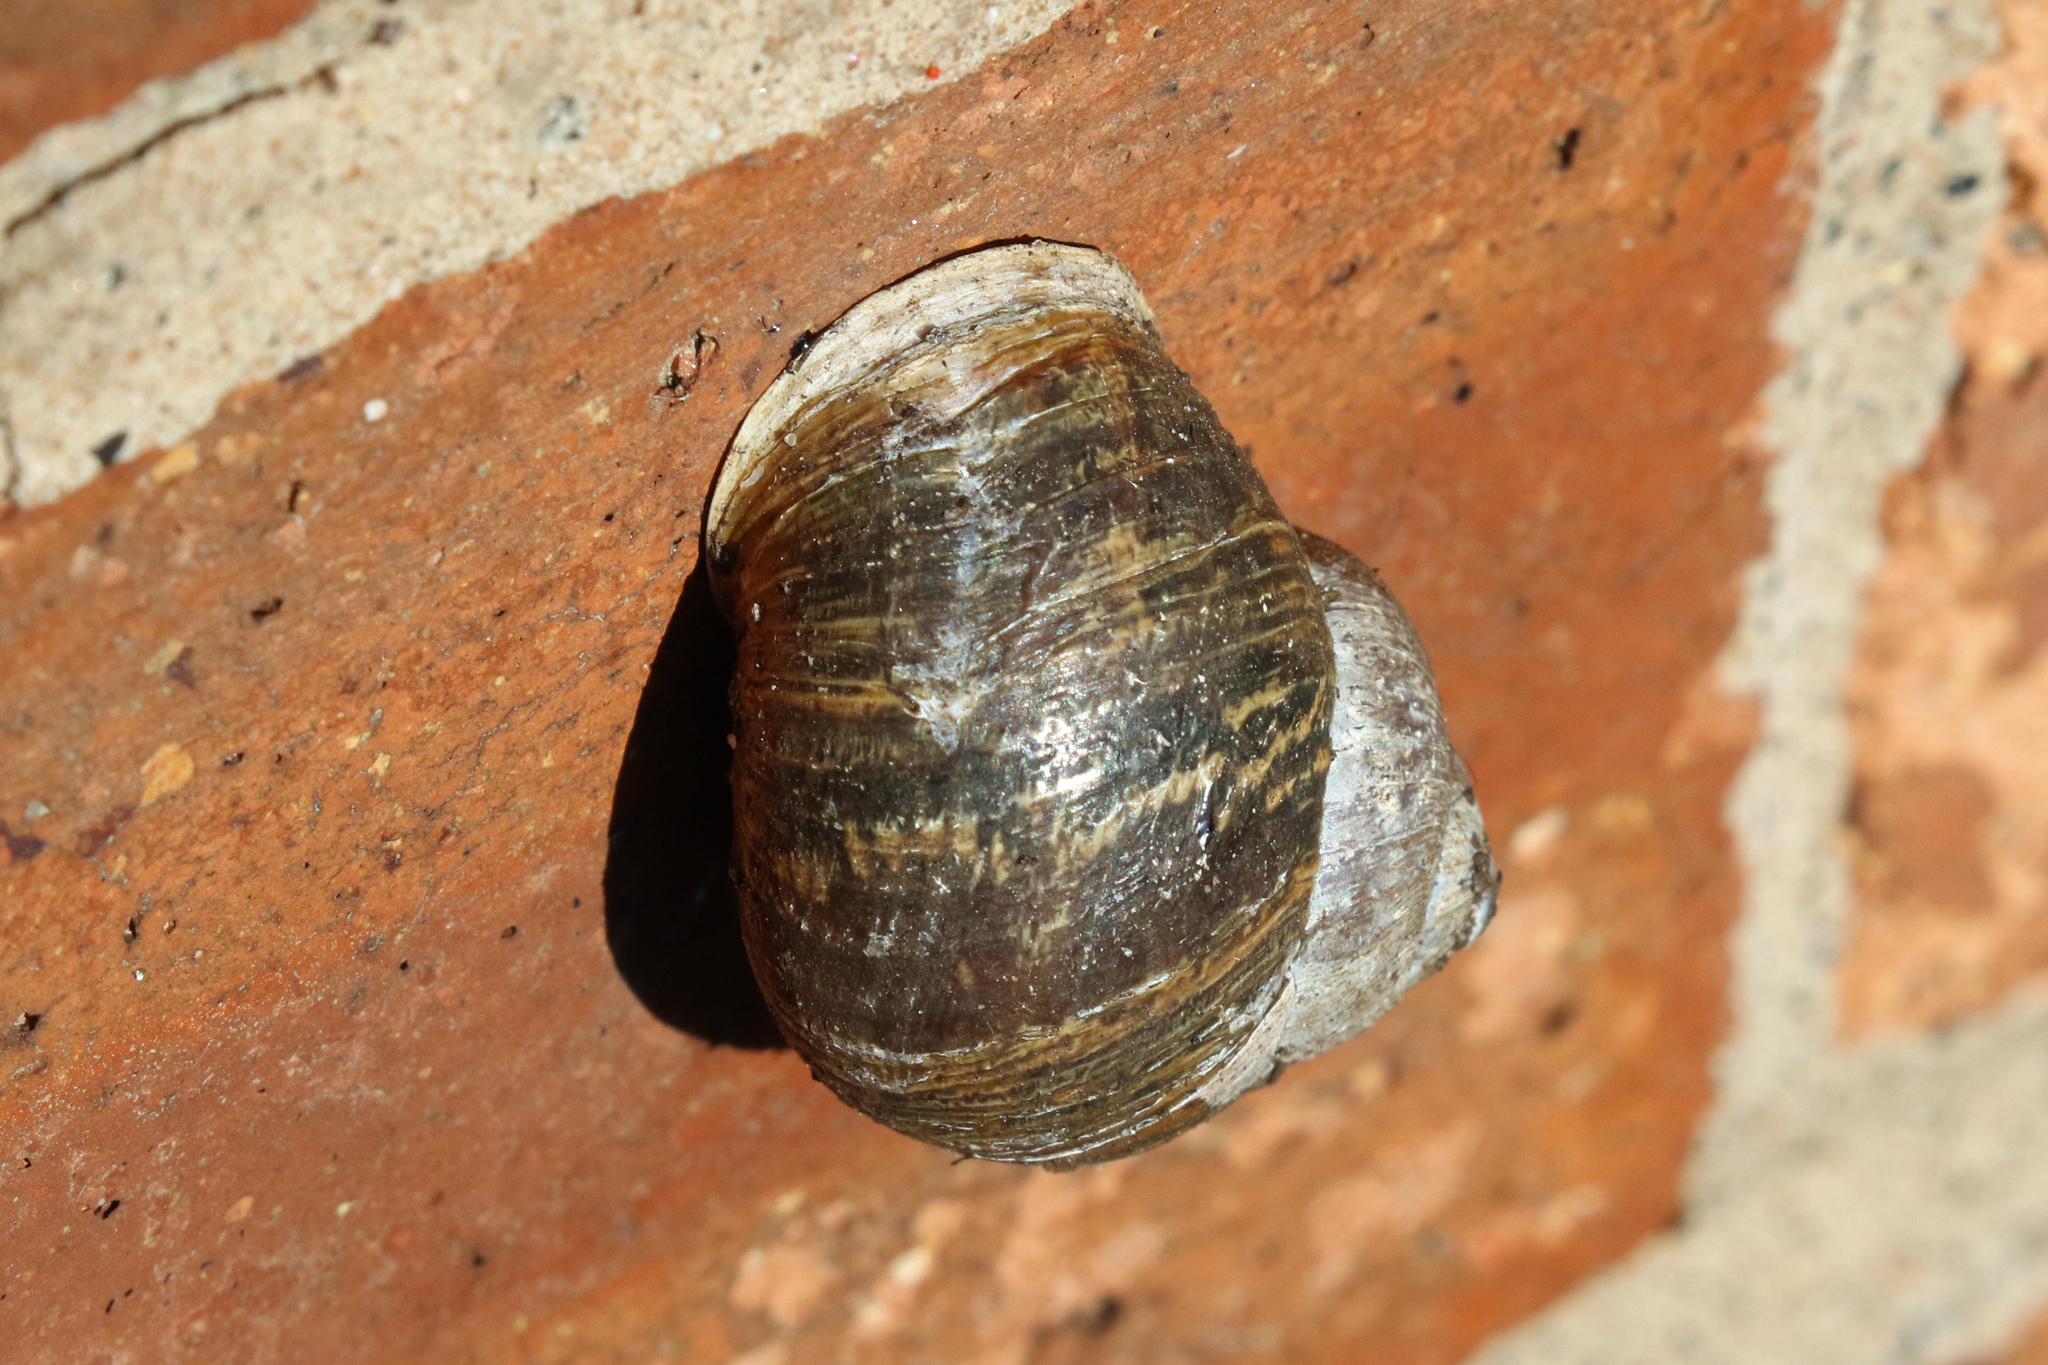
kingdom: Animalia
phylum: Mollusca
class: Gastropoda
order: Stylommatophora
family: Helicidae
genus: Cornu
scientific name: Cornu aspersum
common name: Brown garden snail
